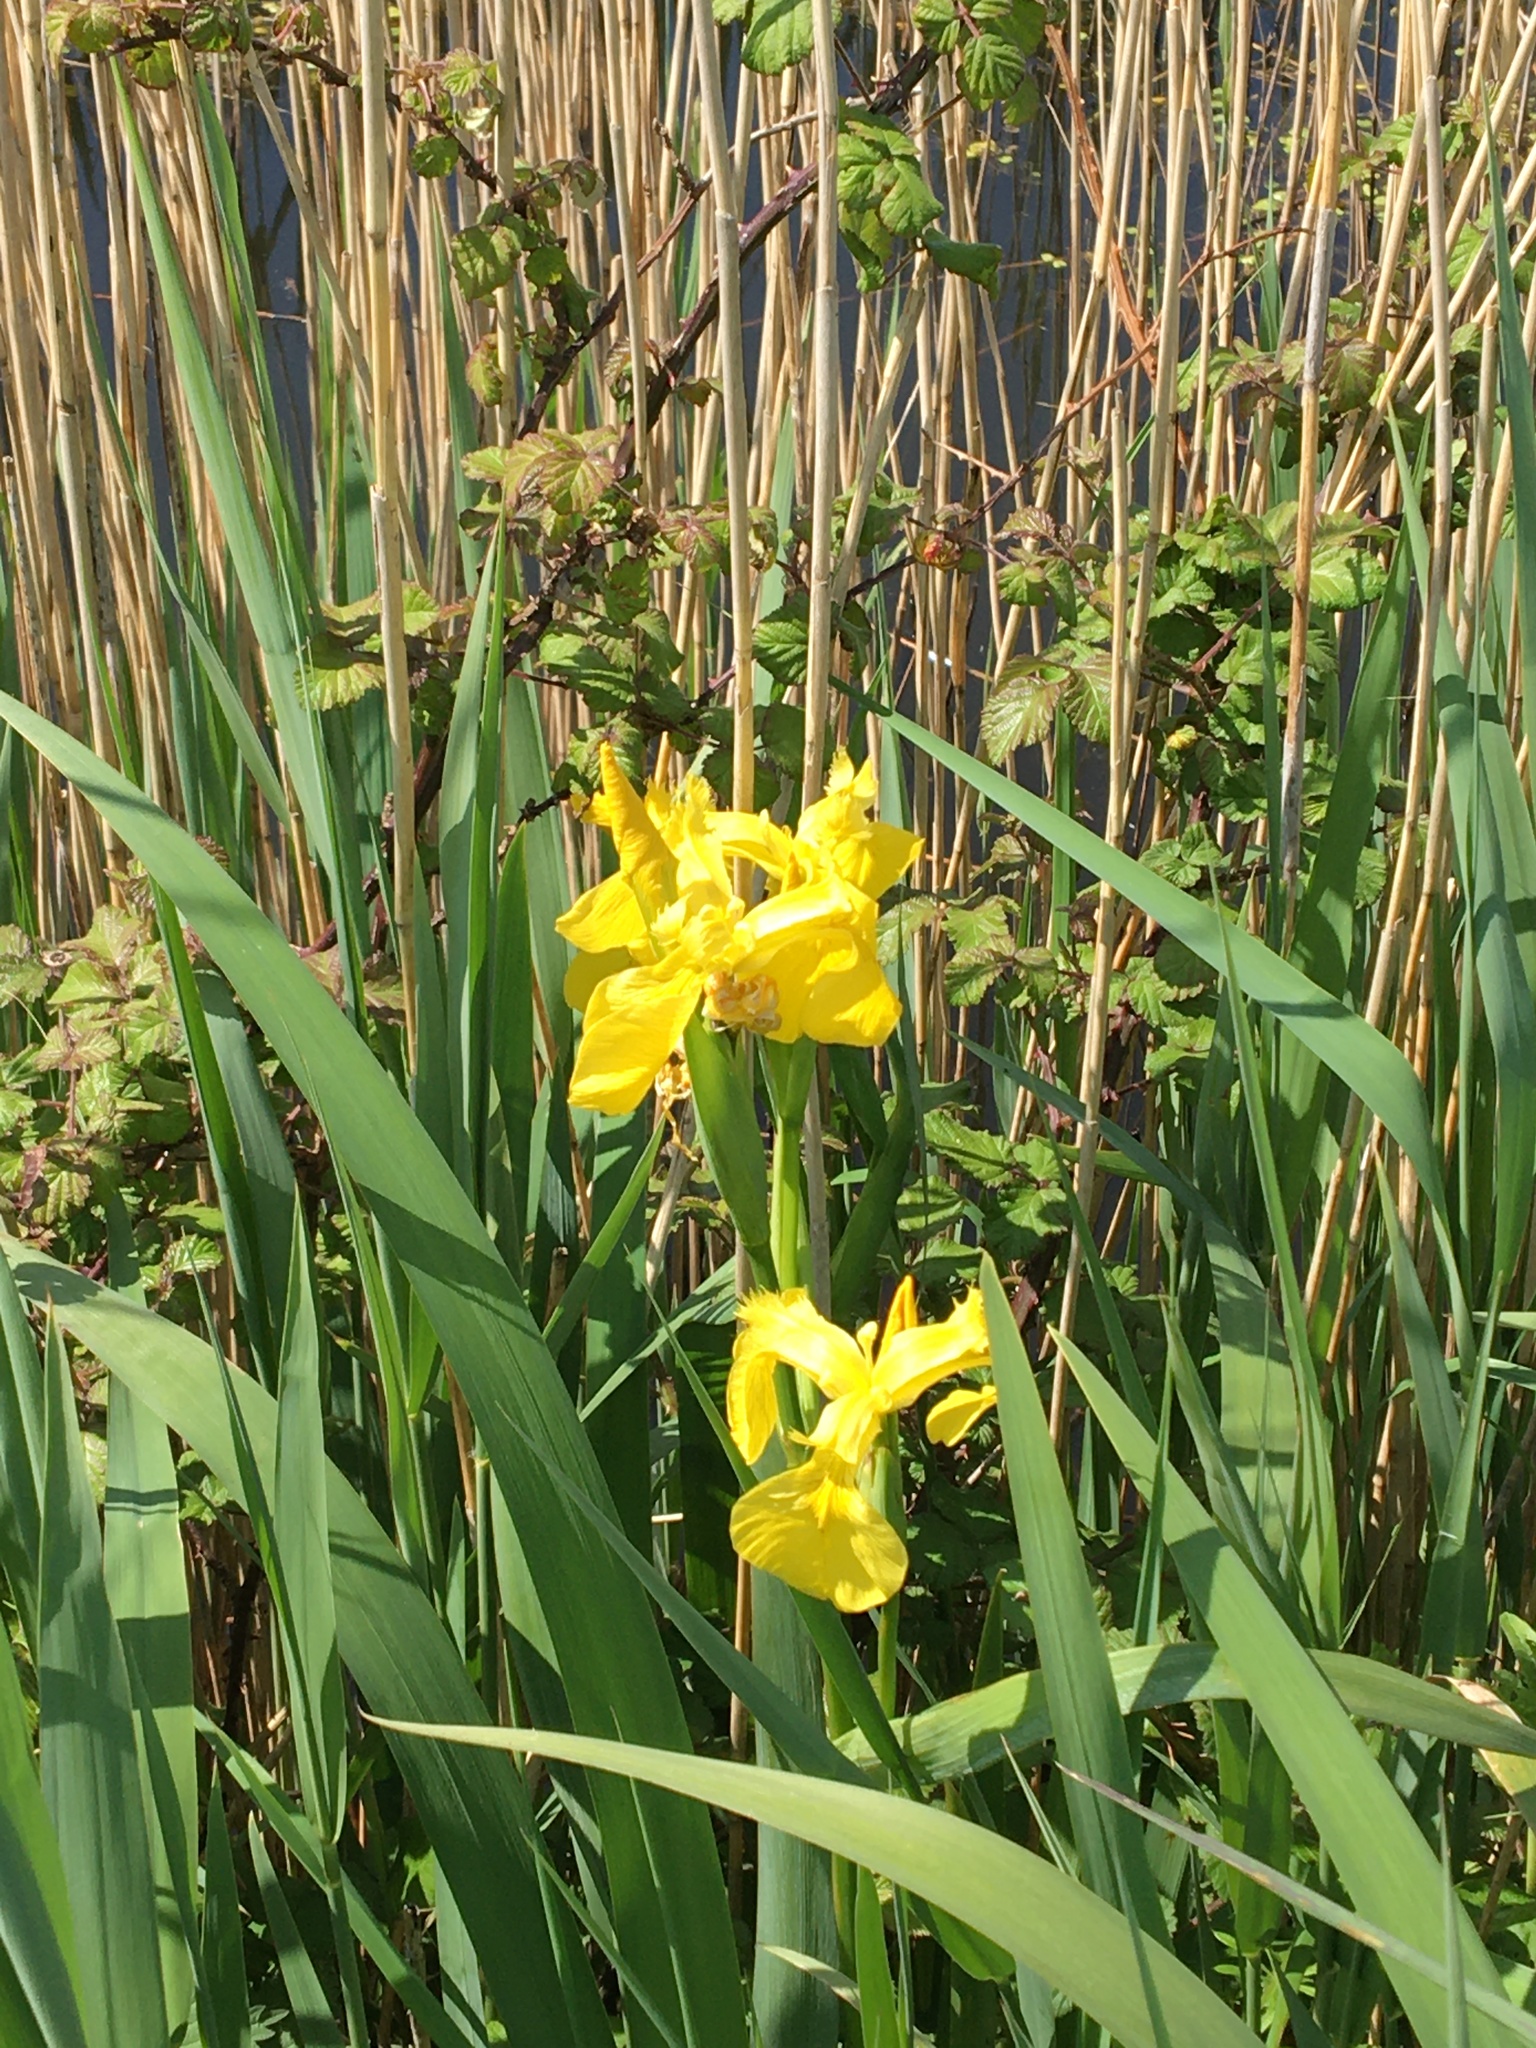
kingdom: Plantae
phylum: Tracheophyta
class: Liliopsida
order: Asparagales
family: Iridaceae
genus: Iris
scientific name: Iris pseudacorus
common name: Yellow flag
